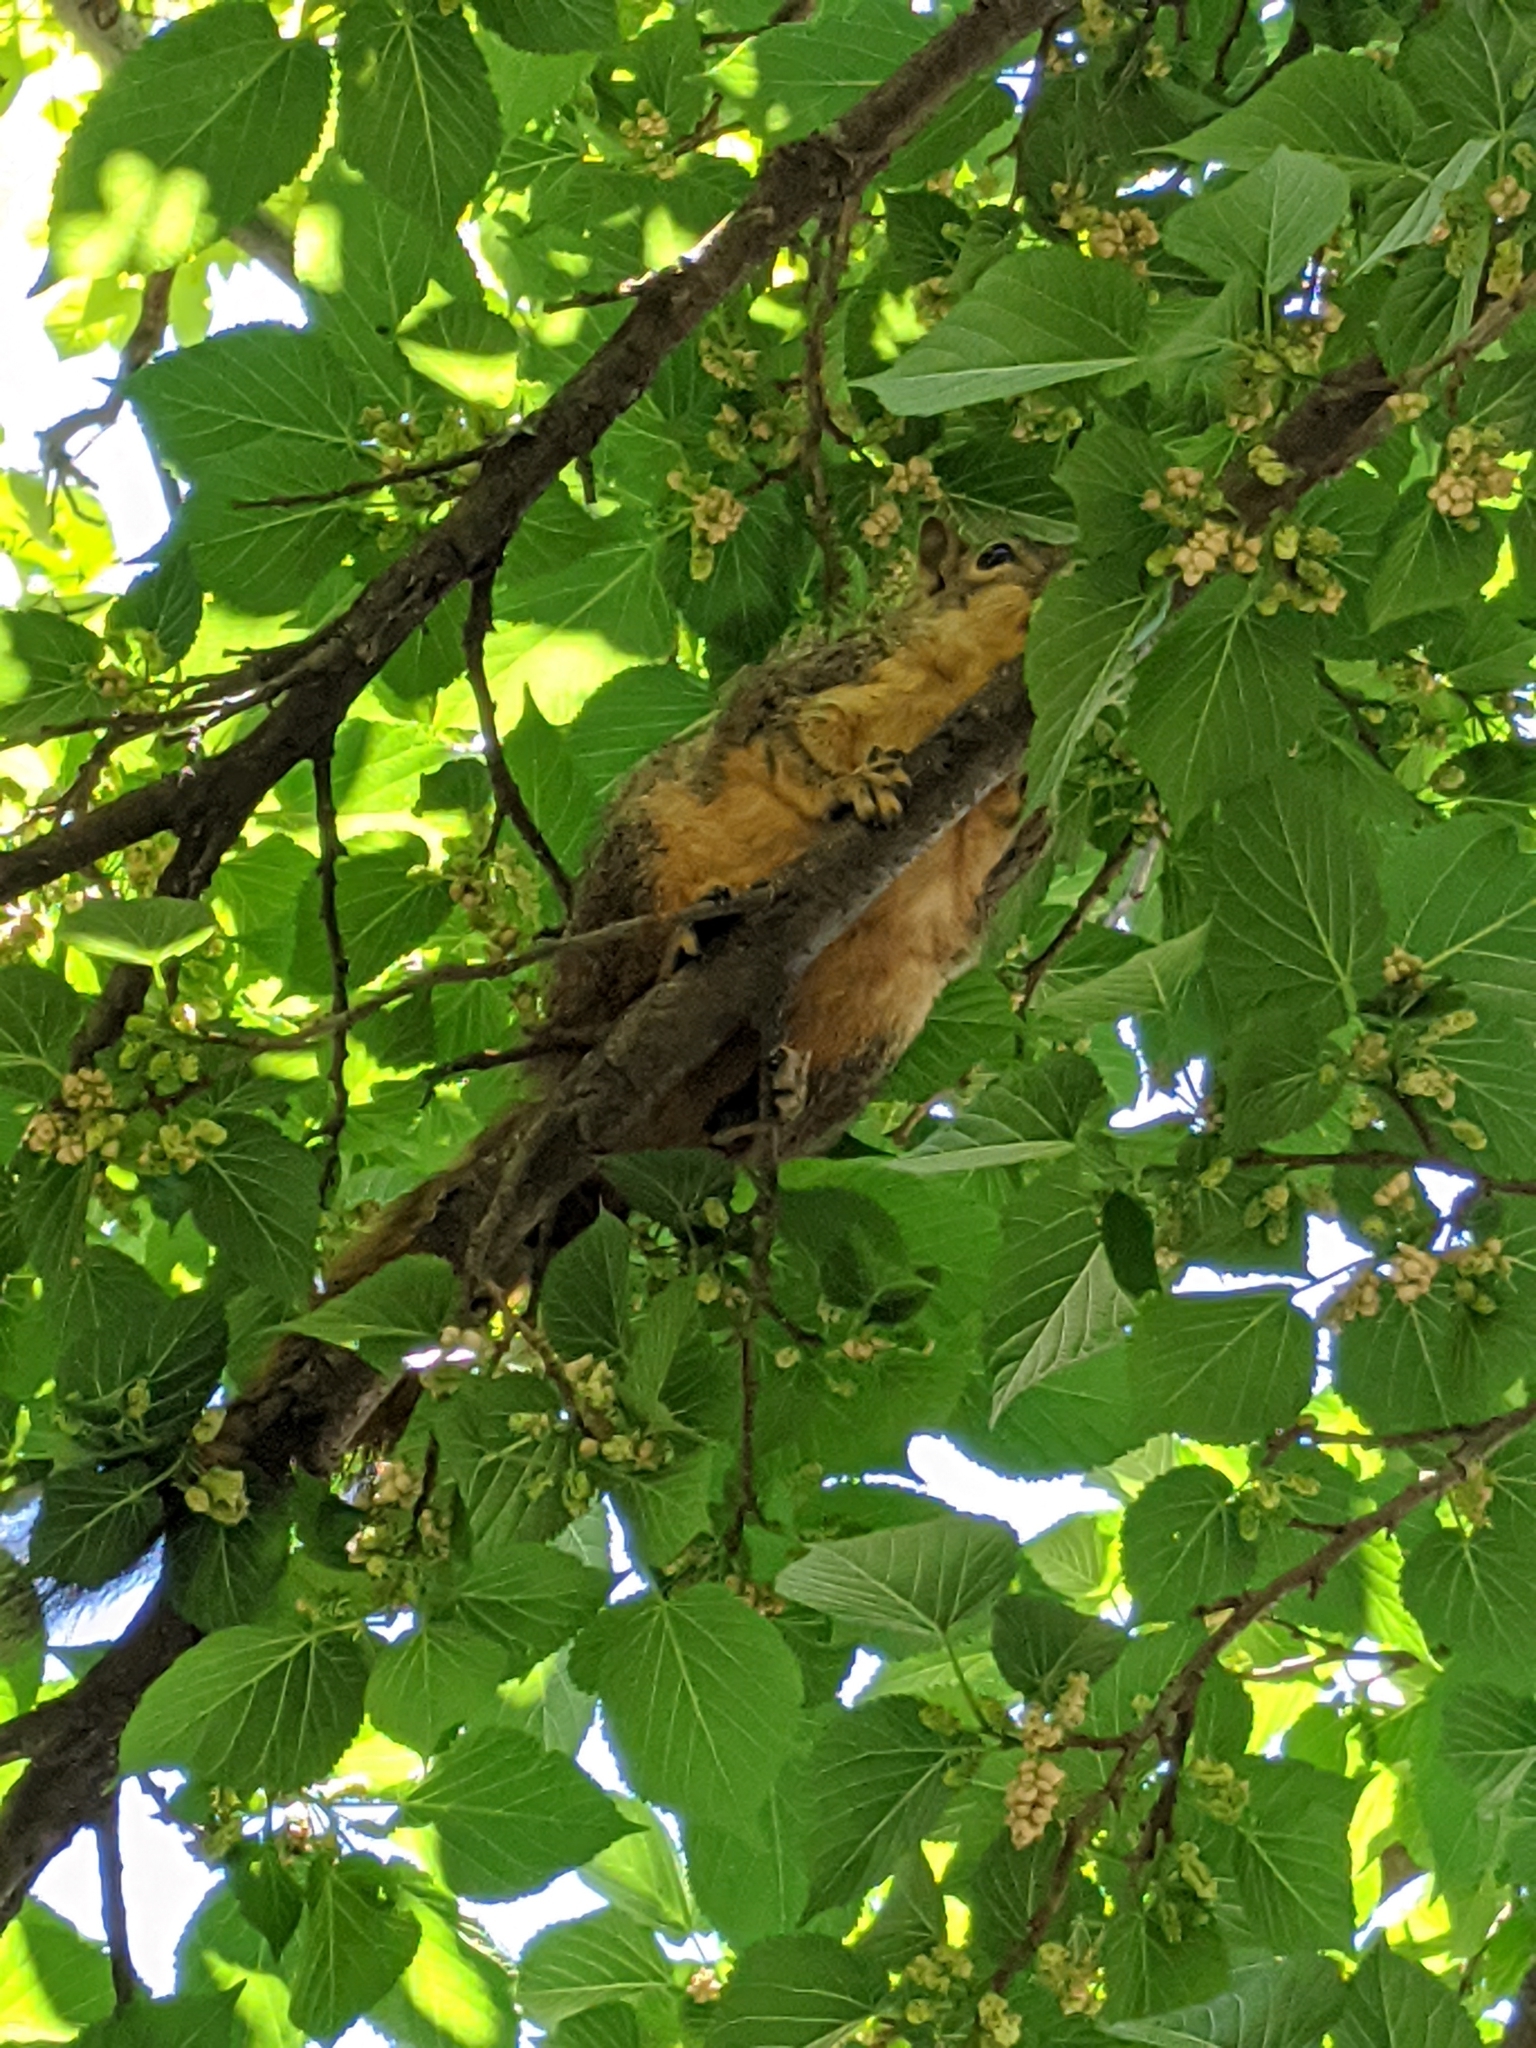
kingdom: Animalia
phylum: Chordata
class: Mammalia
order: Rodentia
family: Sciuridae
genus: Sciurus
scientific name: Sciurus niger
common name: Fox squirrel
